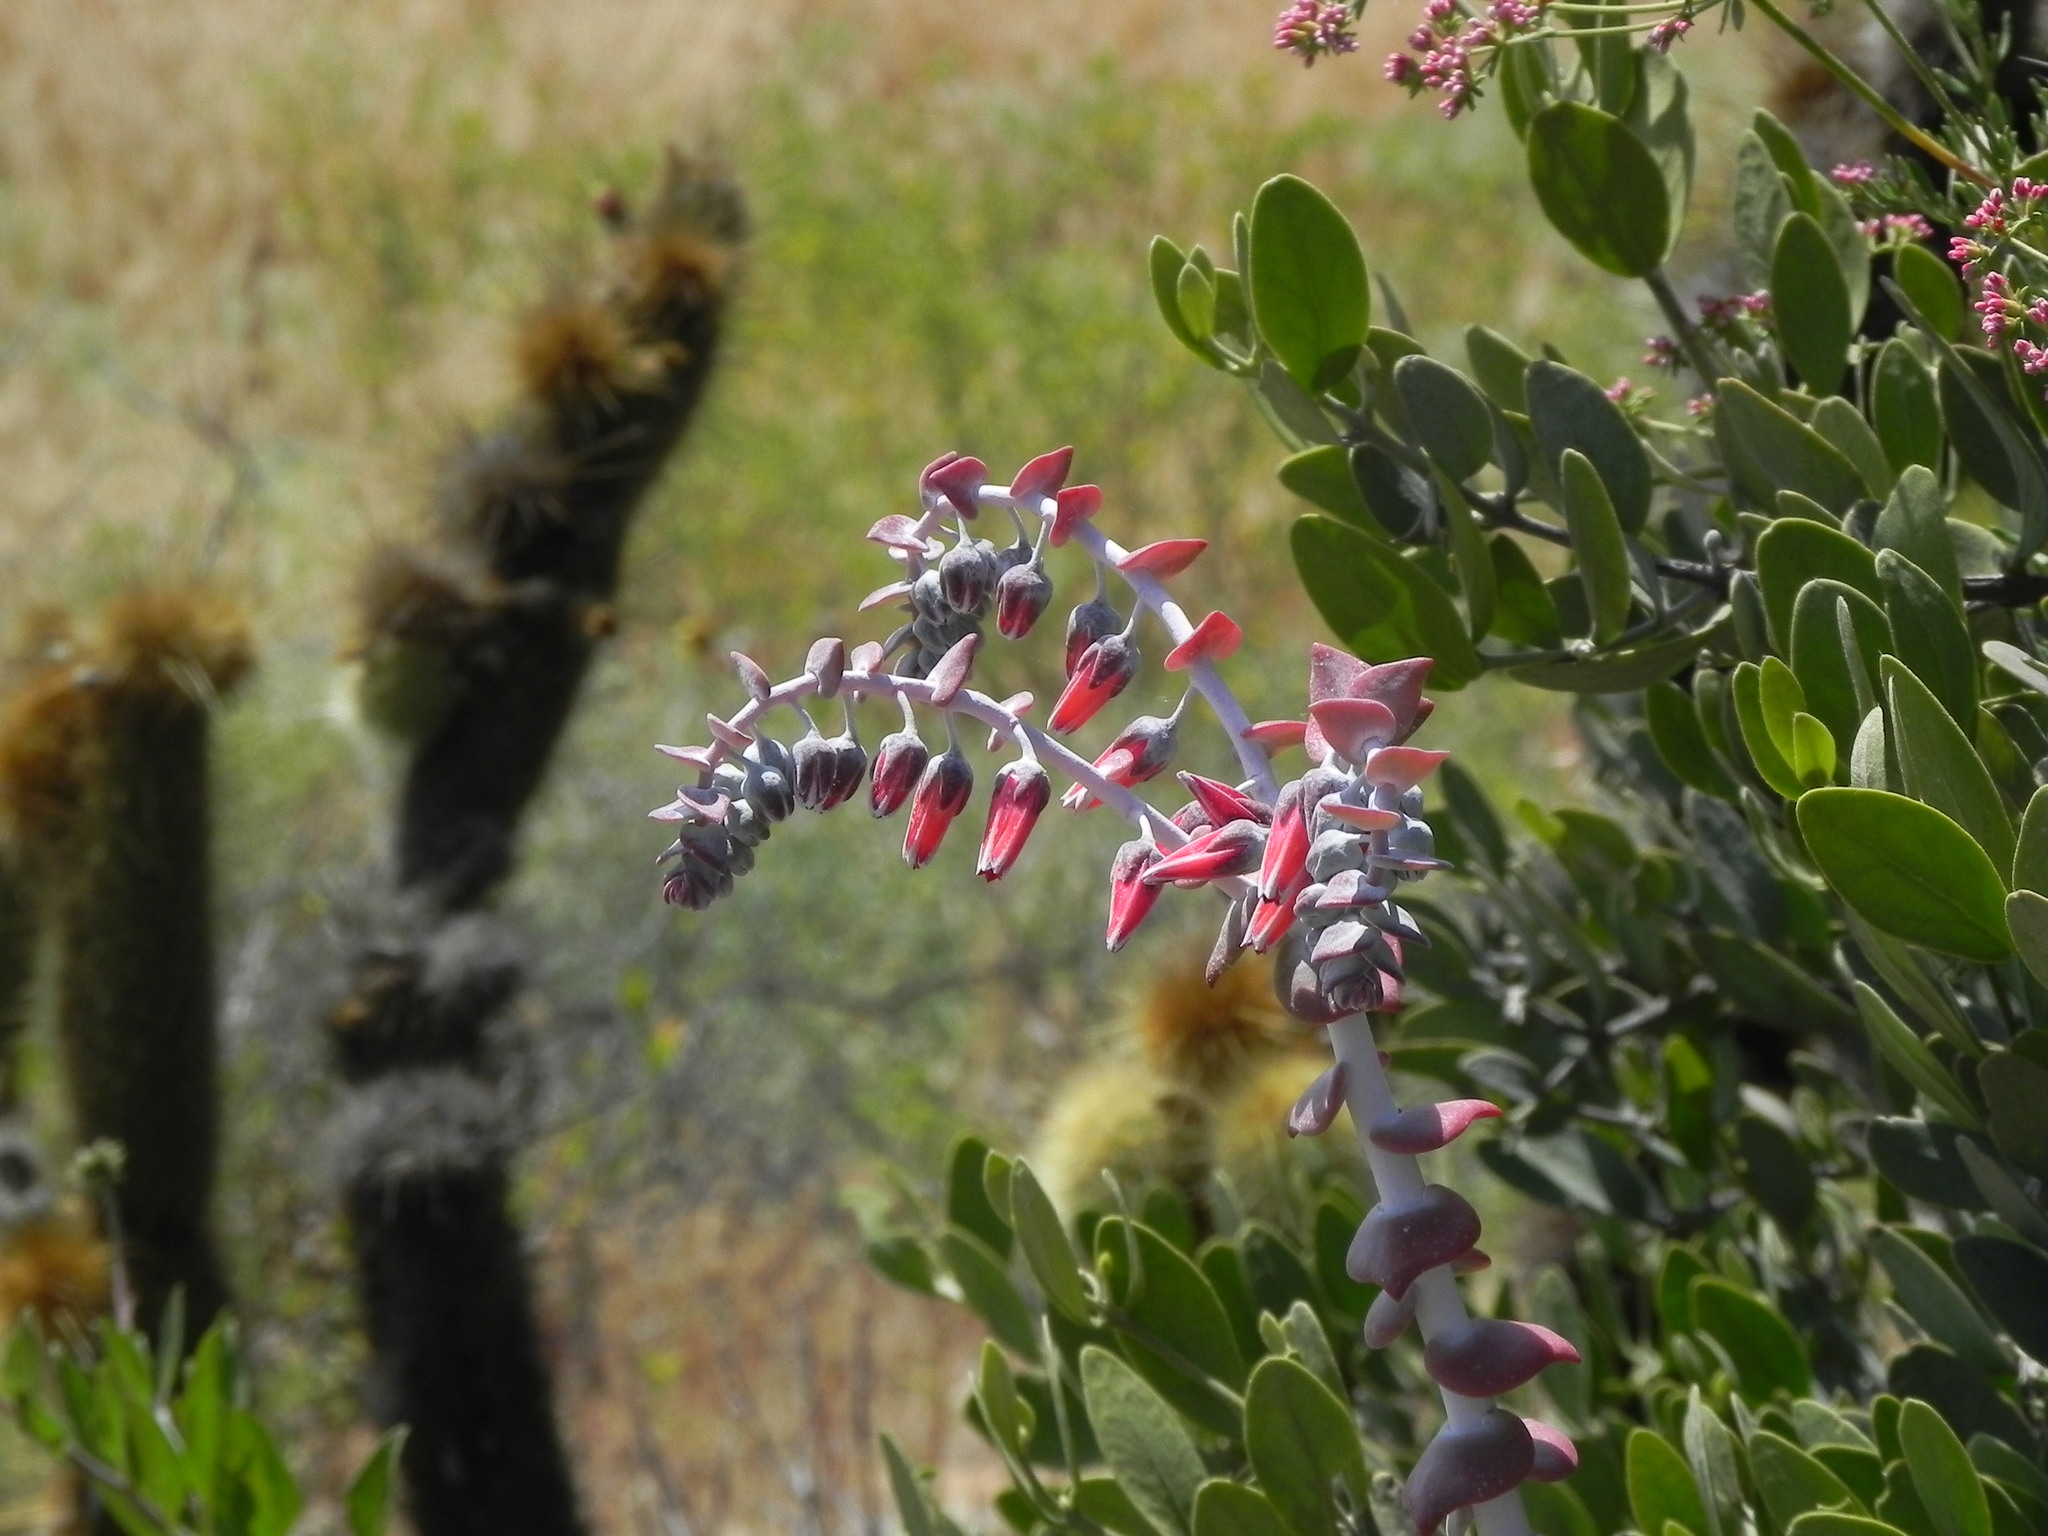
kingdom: Plantae
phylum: Tracheophyta
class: Magnoliopsida
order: Saxifragales
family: Crassulaceae
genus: Dudleya
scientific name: Dudleya pulverulenta
